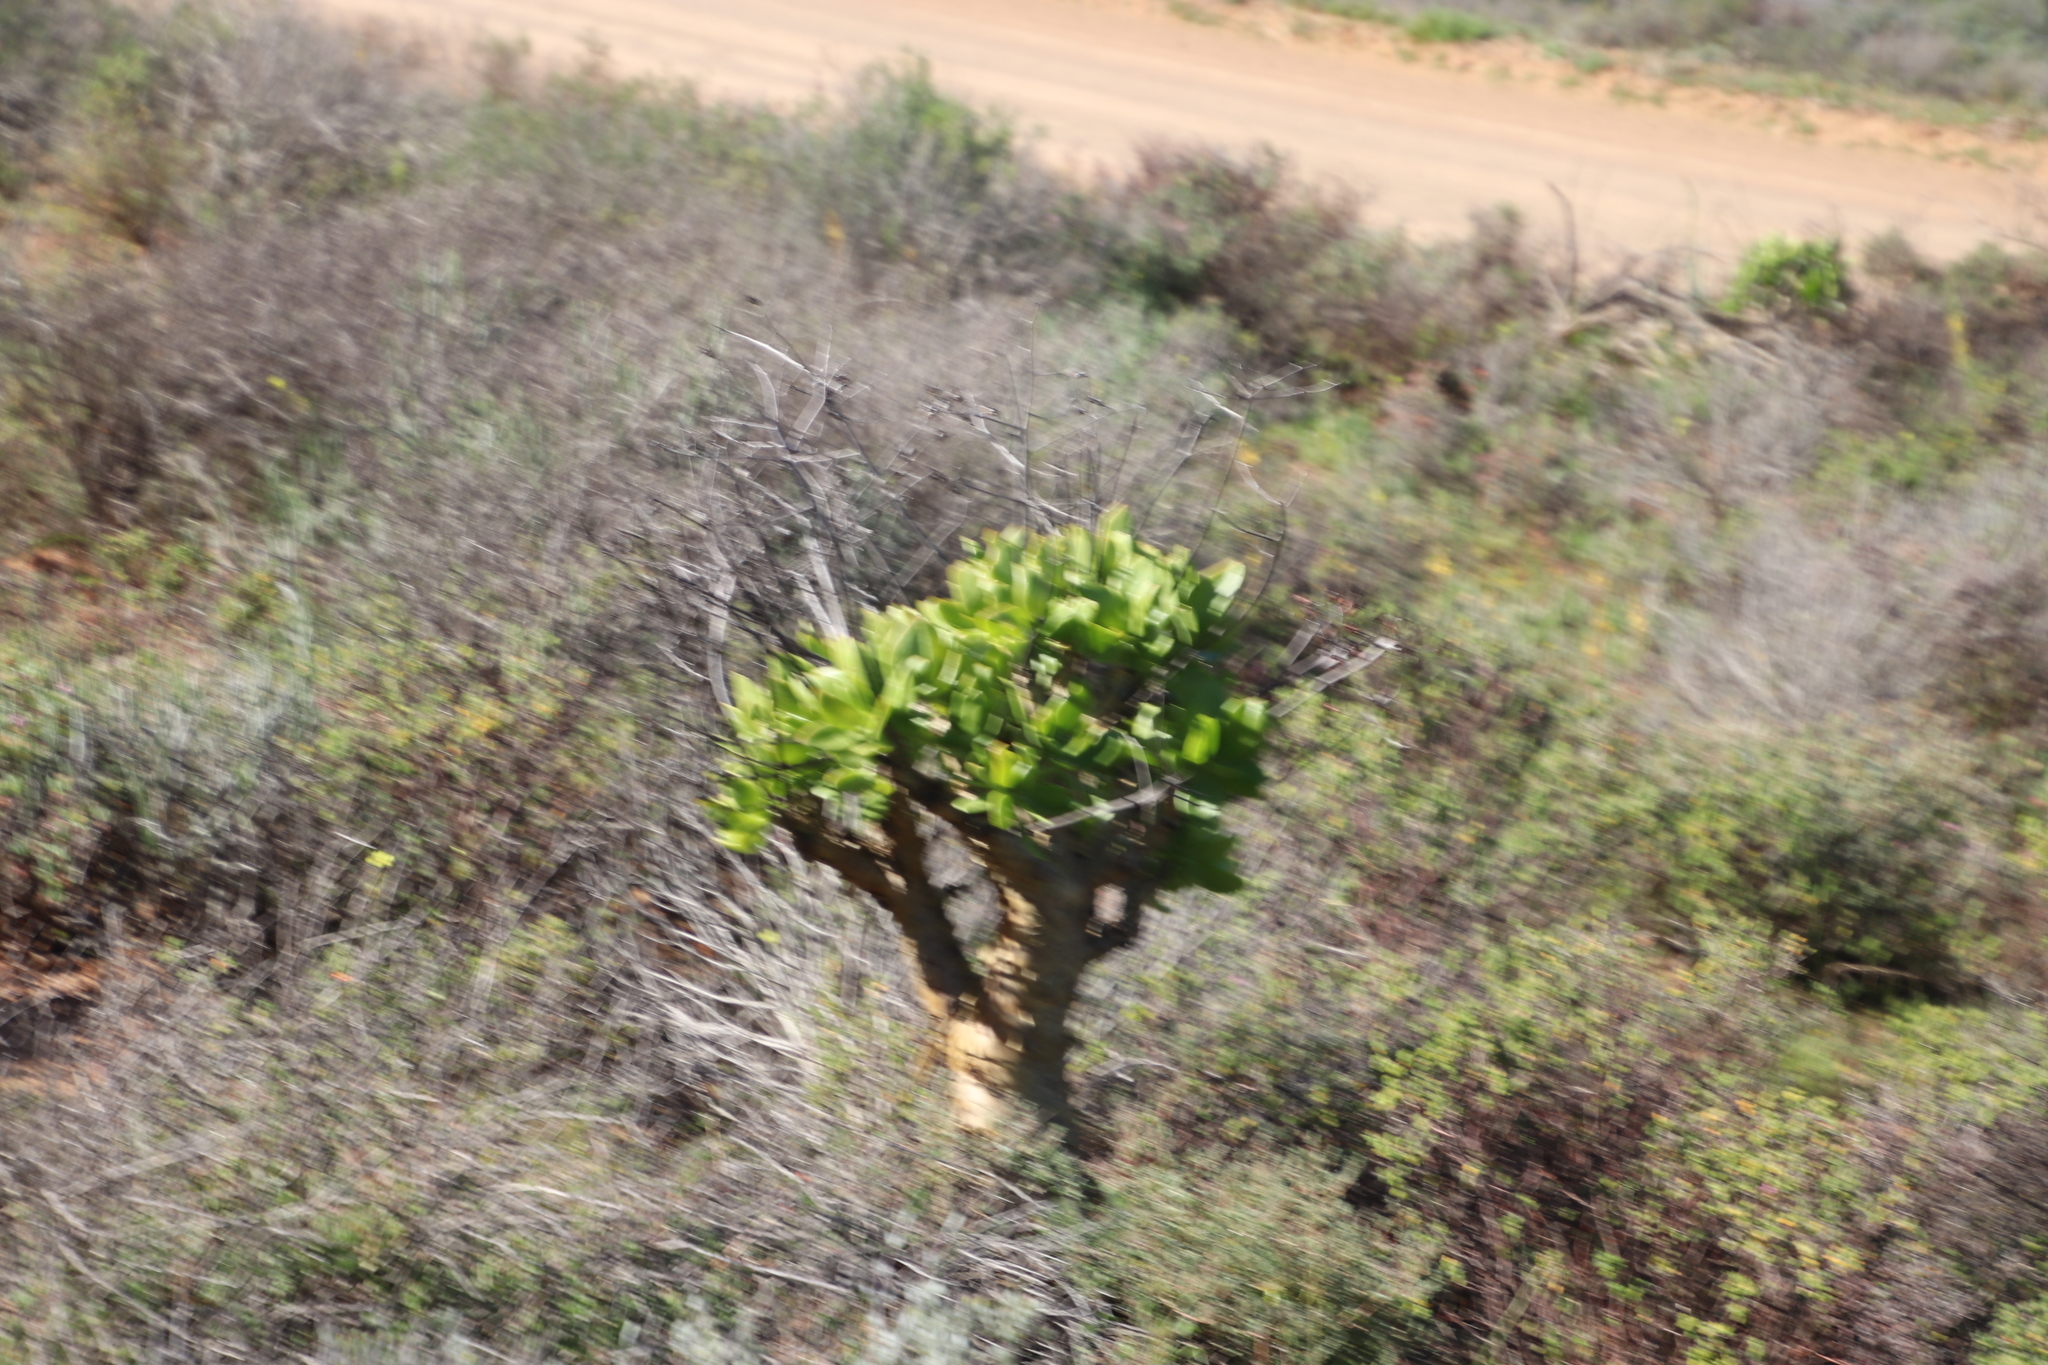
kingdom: Plantae
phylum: Tracheophyta
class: Magnoliopsida
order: Saxifragales
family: Crassulaceae
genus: Tylecodon
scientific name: Tylecodon paniculatus
